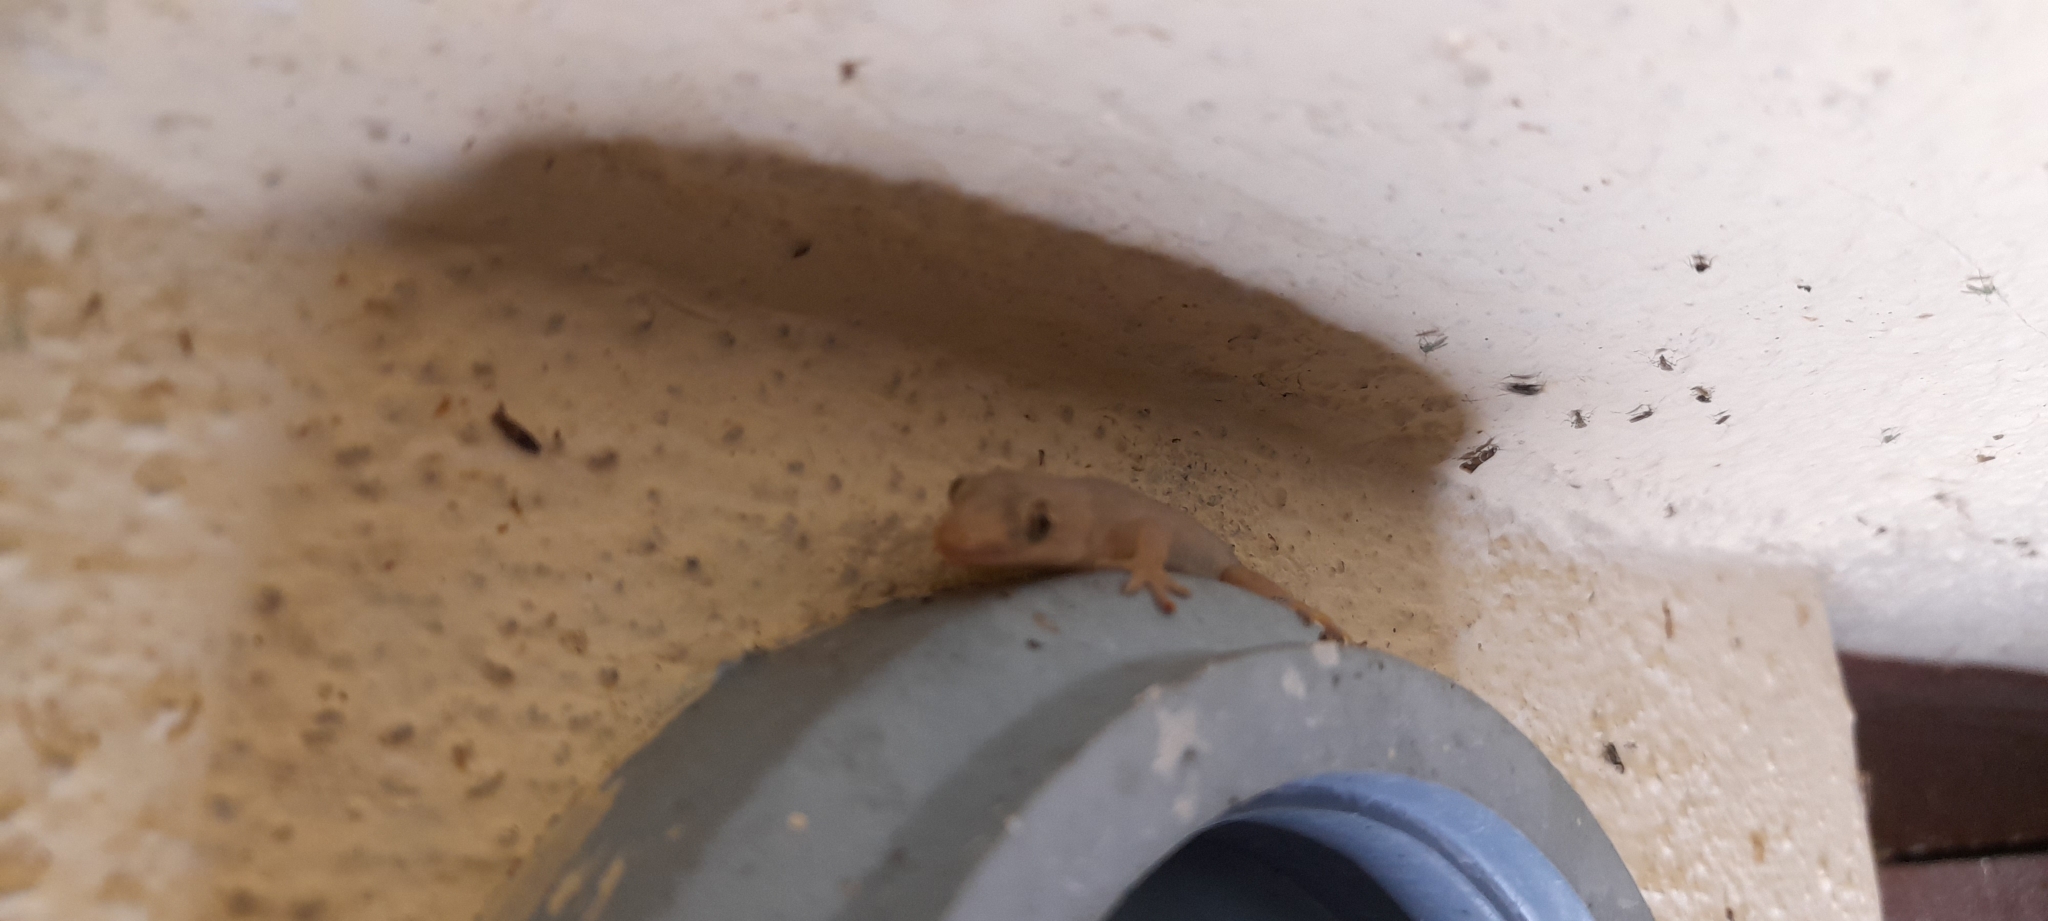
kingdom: Animalia
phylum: Chordata
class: Squamata
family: Gekkonidae
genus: Hemidactylus
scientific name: Hemidactylus frenatus
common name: Common house gecko
